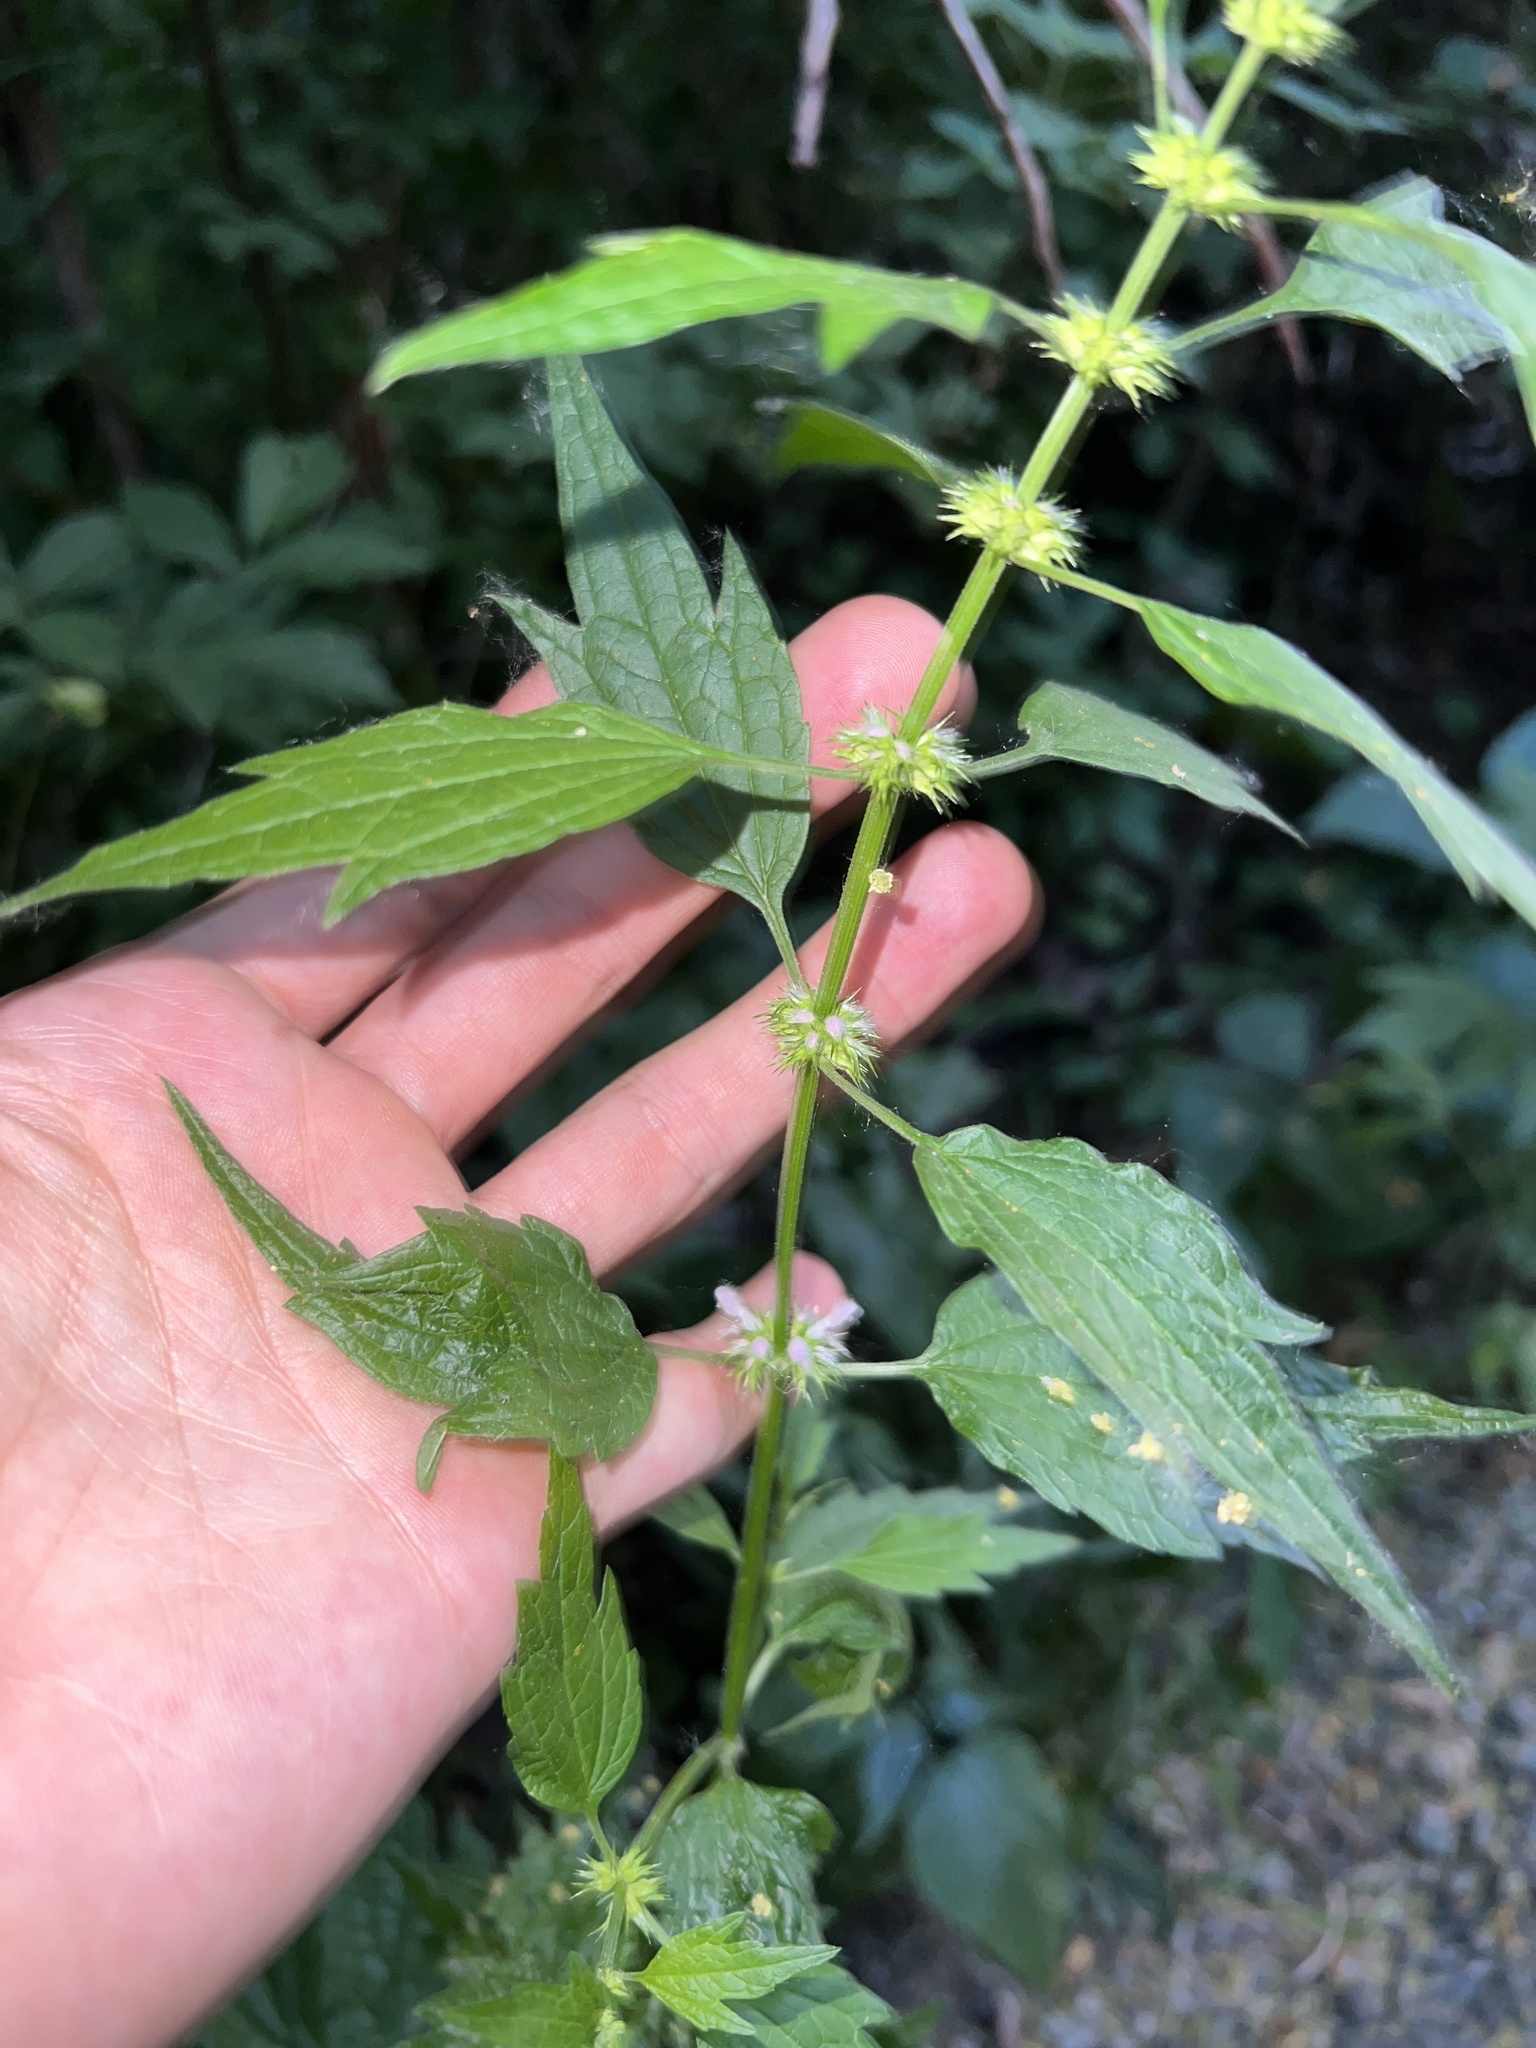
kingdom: Plantae
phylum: Tracheophyta
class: Magnoliopsida
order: Lamiales
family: Lamiaceae
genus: Leonurus
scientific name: Leonurus cardiaca
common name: Motherwort
